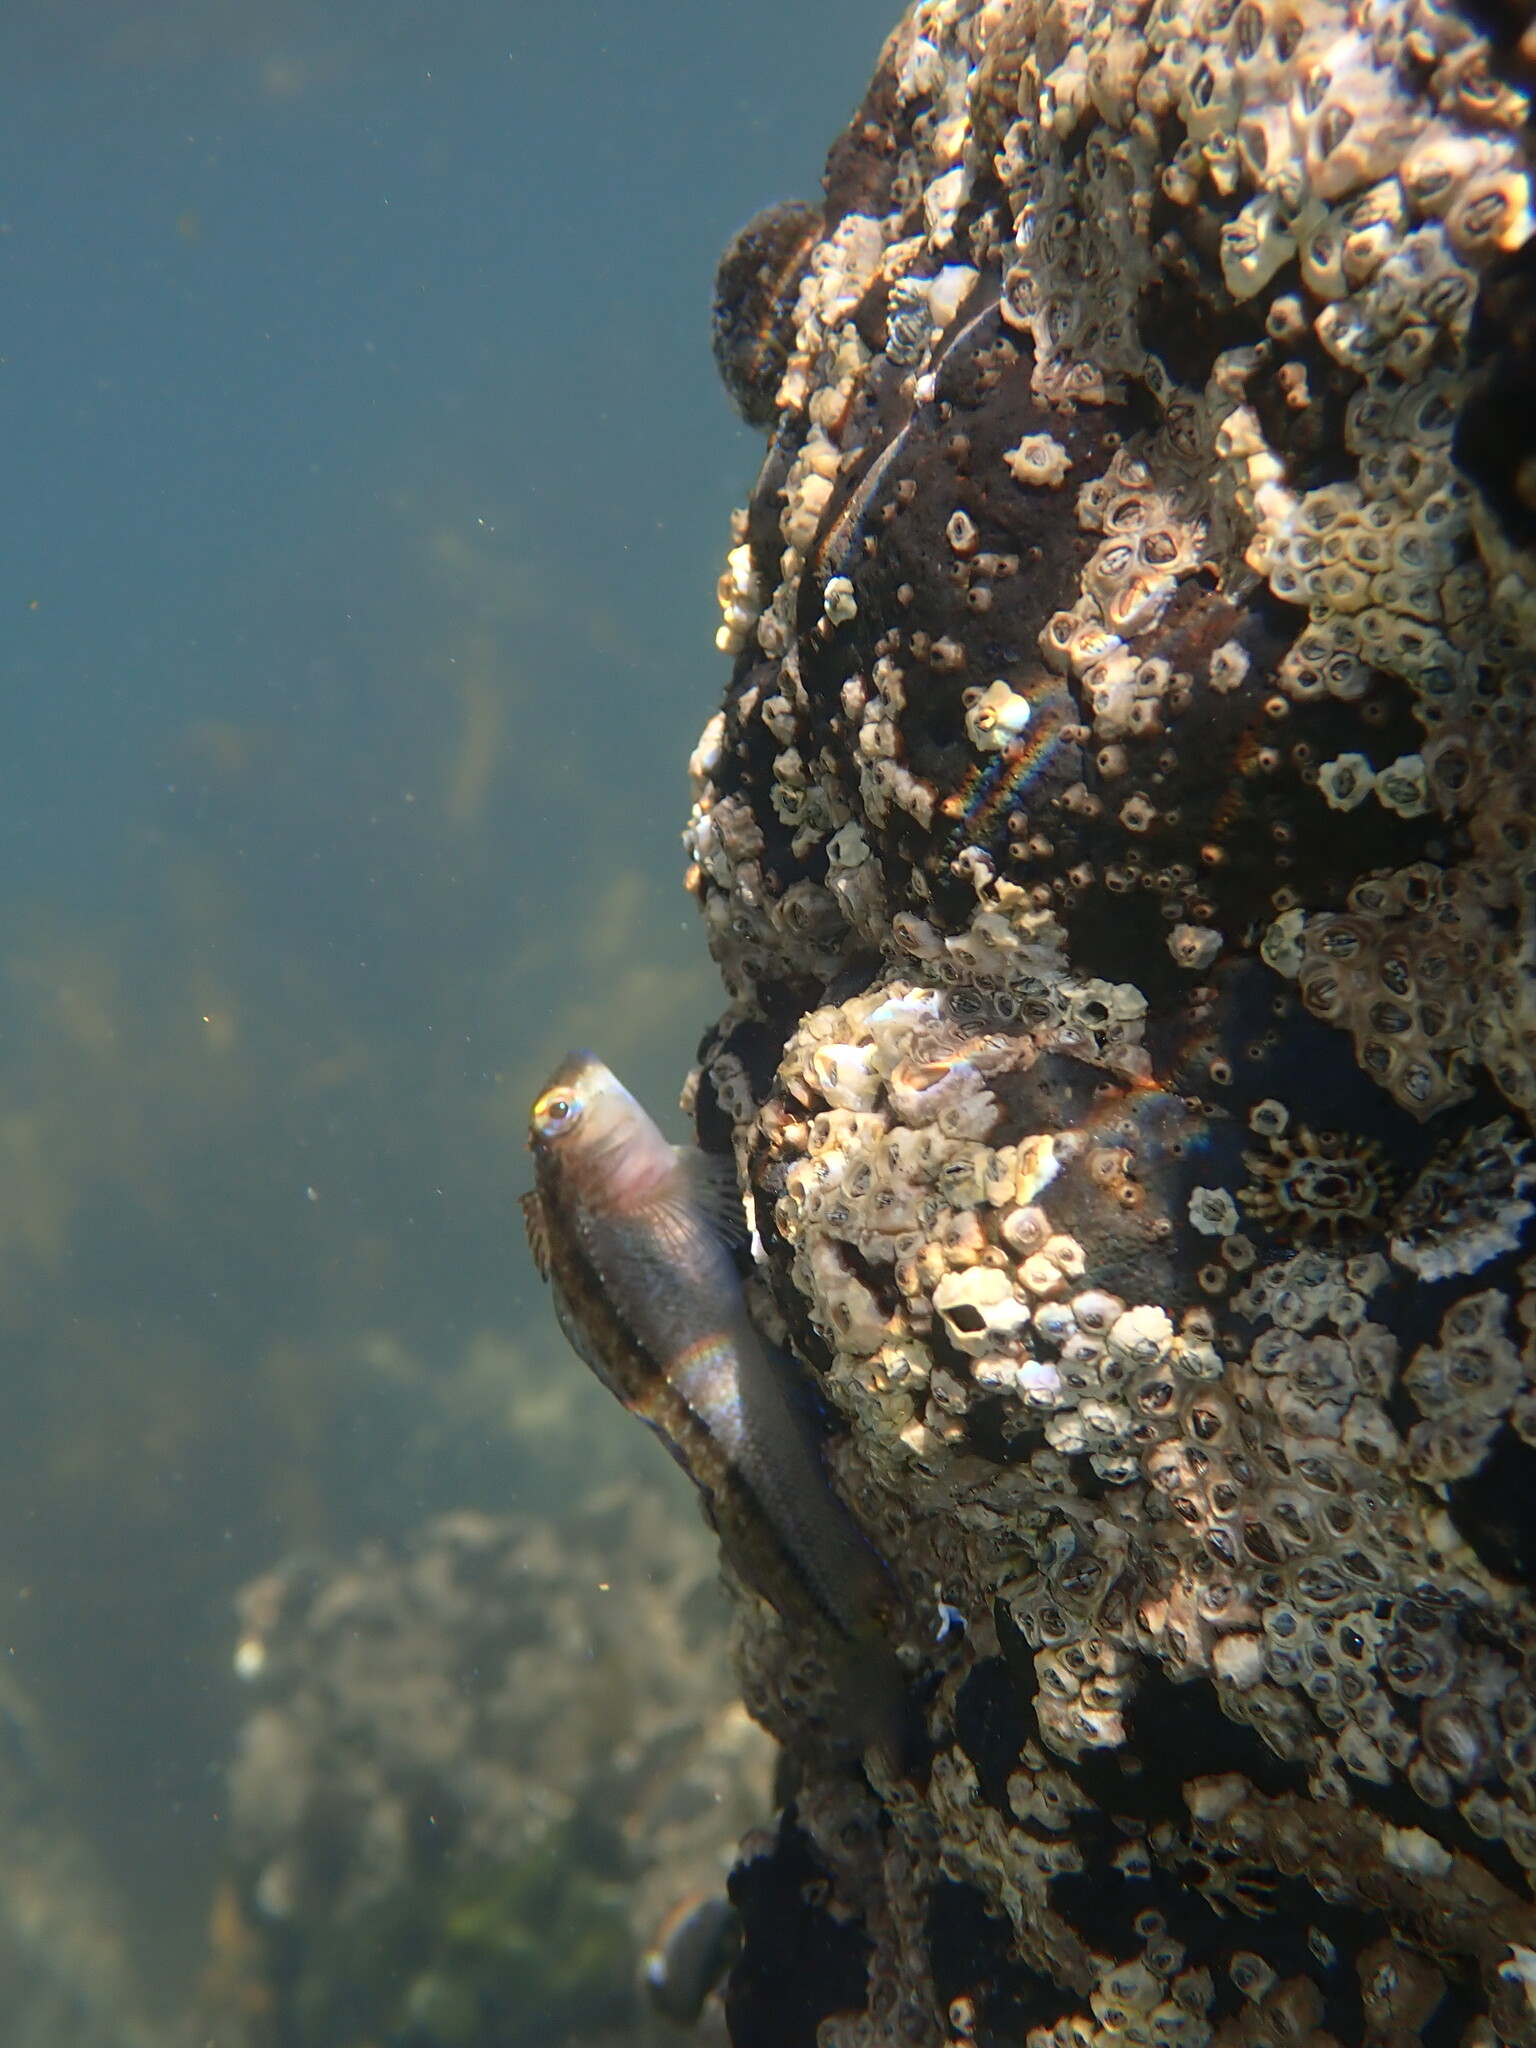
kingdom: Animalia
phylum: Chordata
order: Perciformes
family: Tripterygiidae
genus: Forsterygion
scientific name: Forsterygion lapillum
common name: Common triplefin
